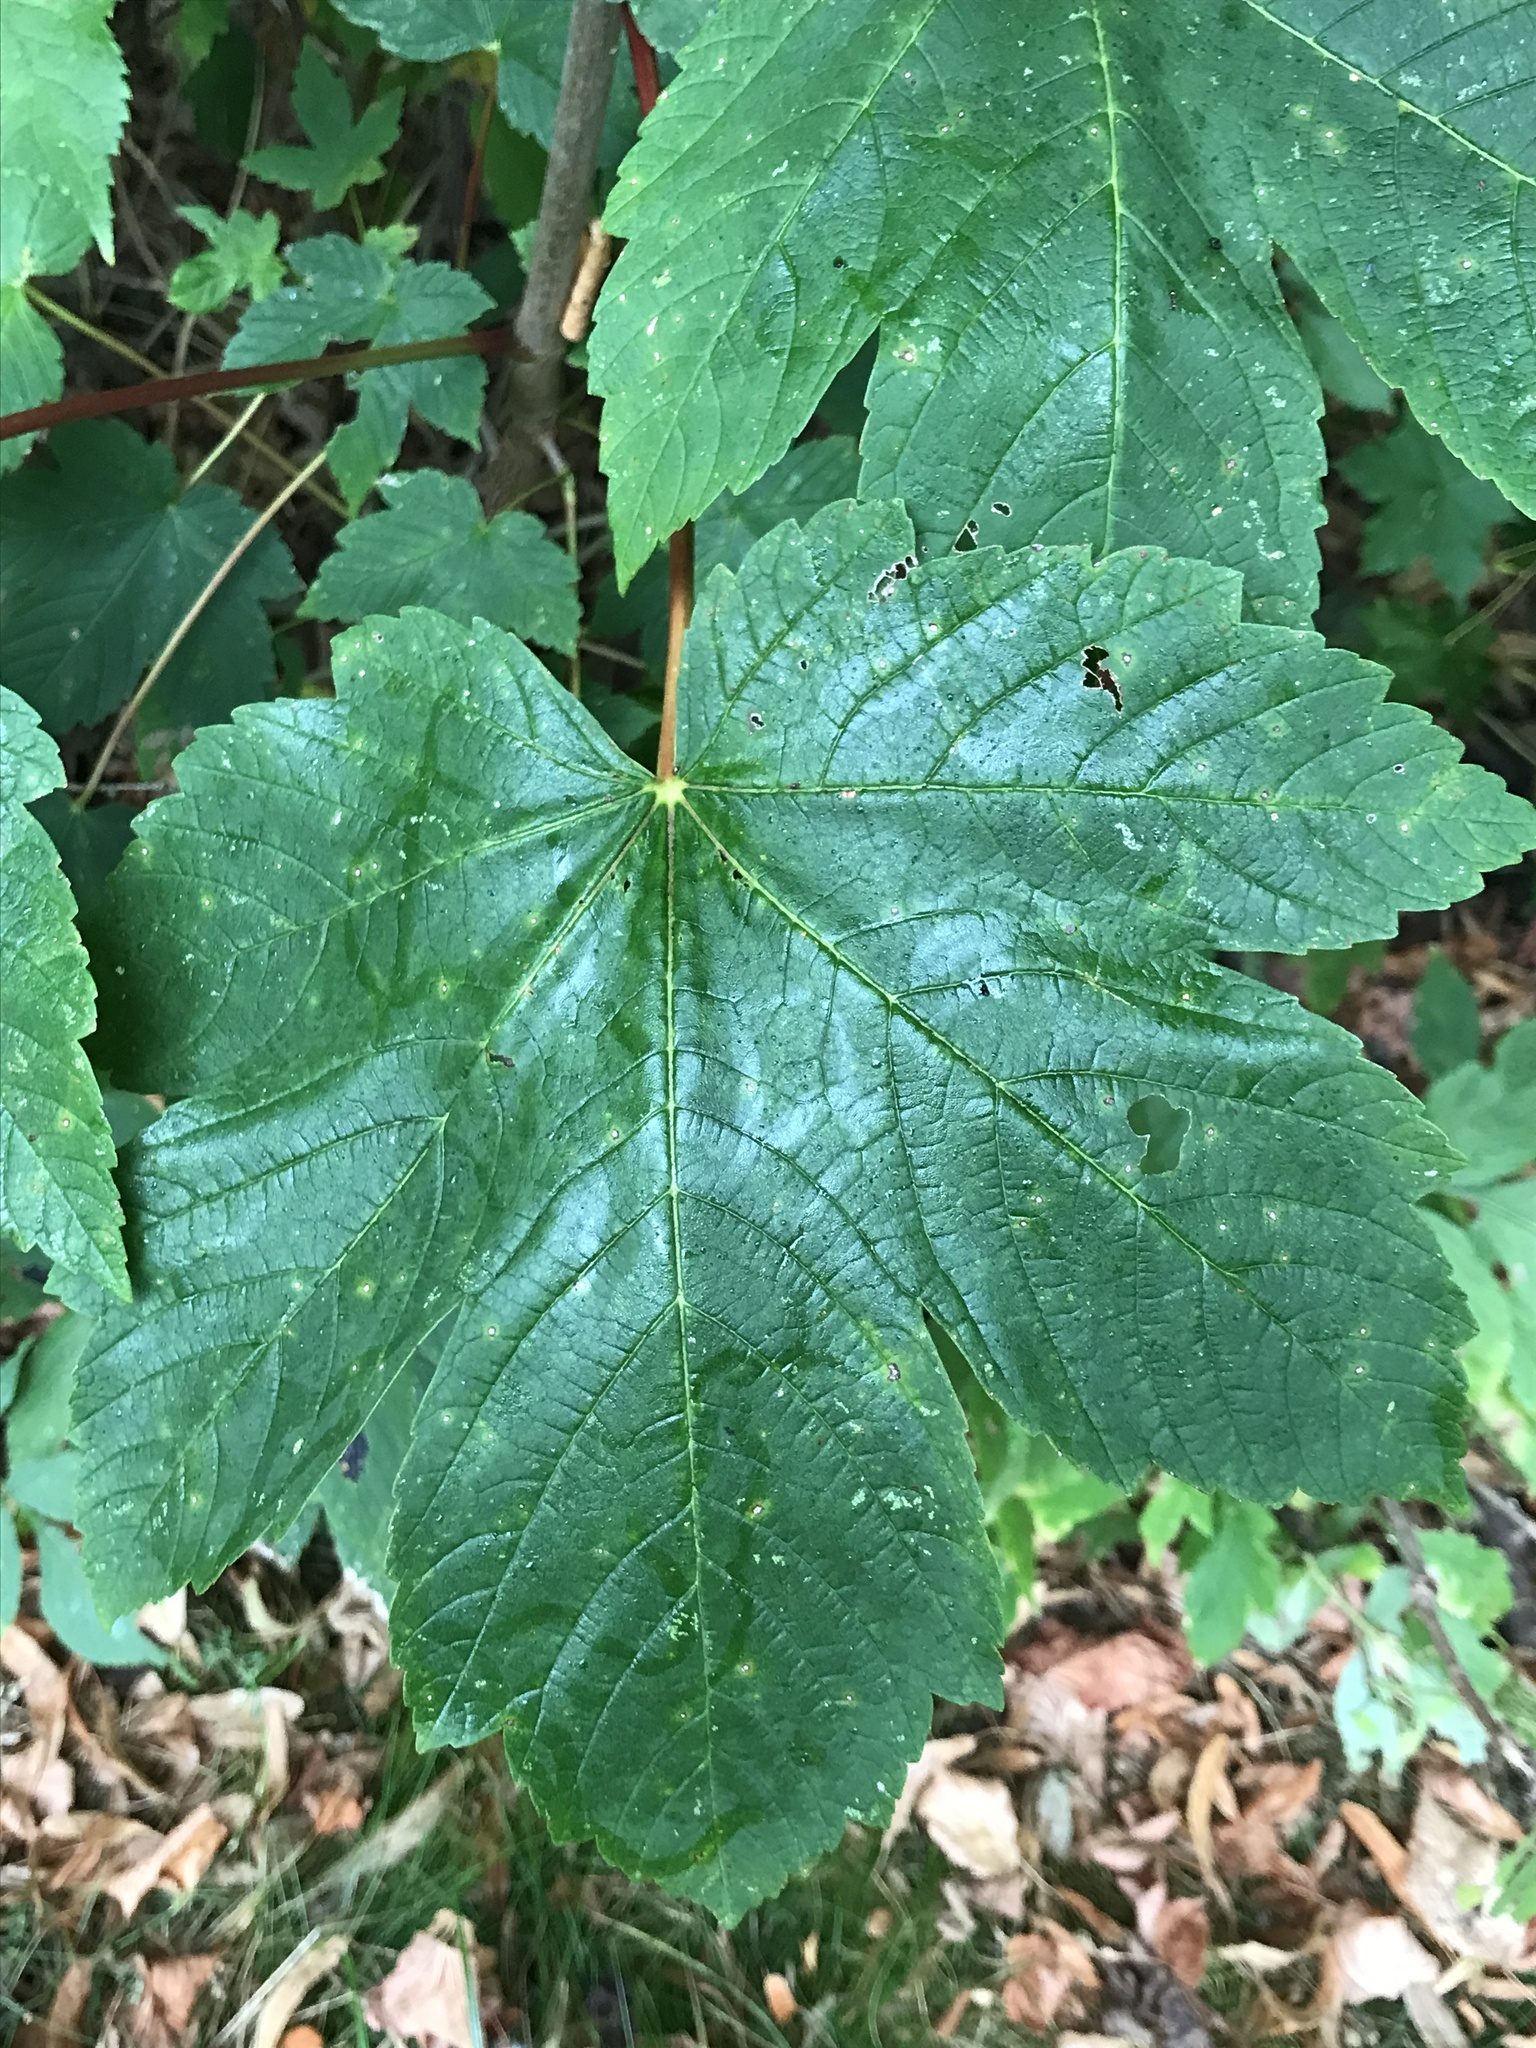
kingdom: Plantae
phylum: Tracheophyta
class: Magnoliopsida
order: Sapindales
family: Sapindaceae
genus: Acer
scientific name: Acer pseudoplatanus
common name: Sycamore
